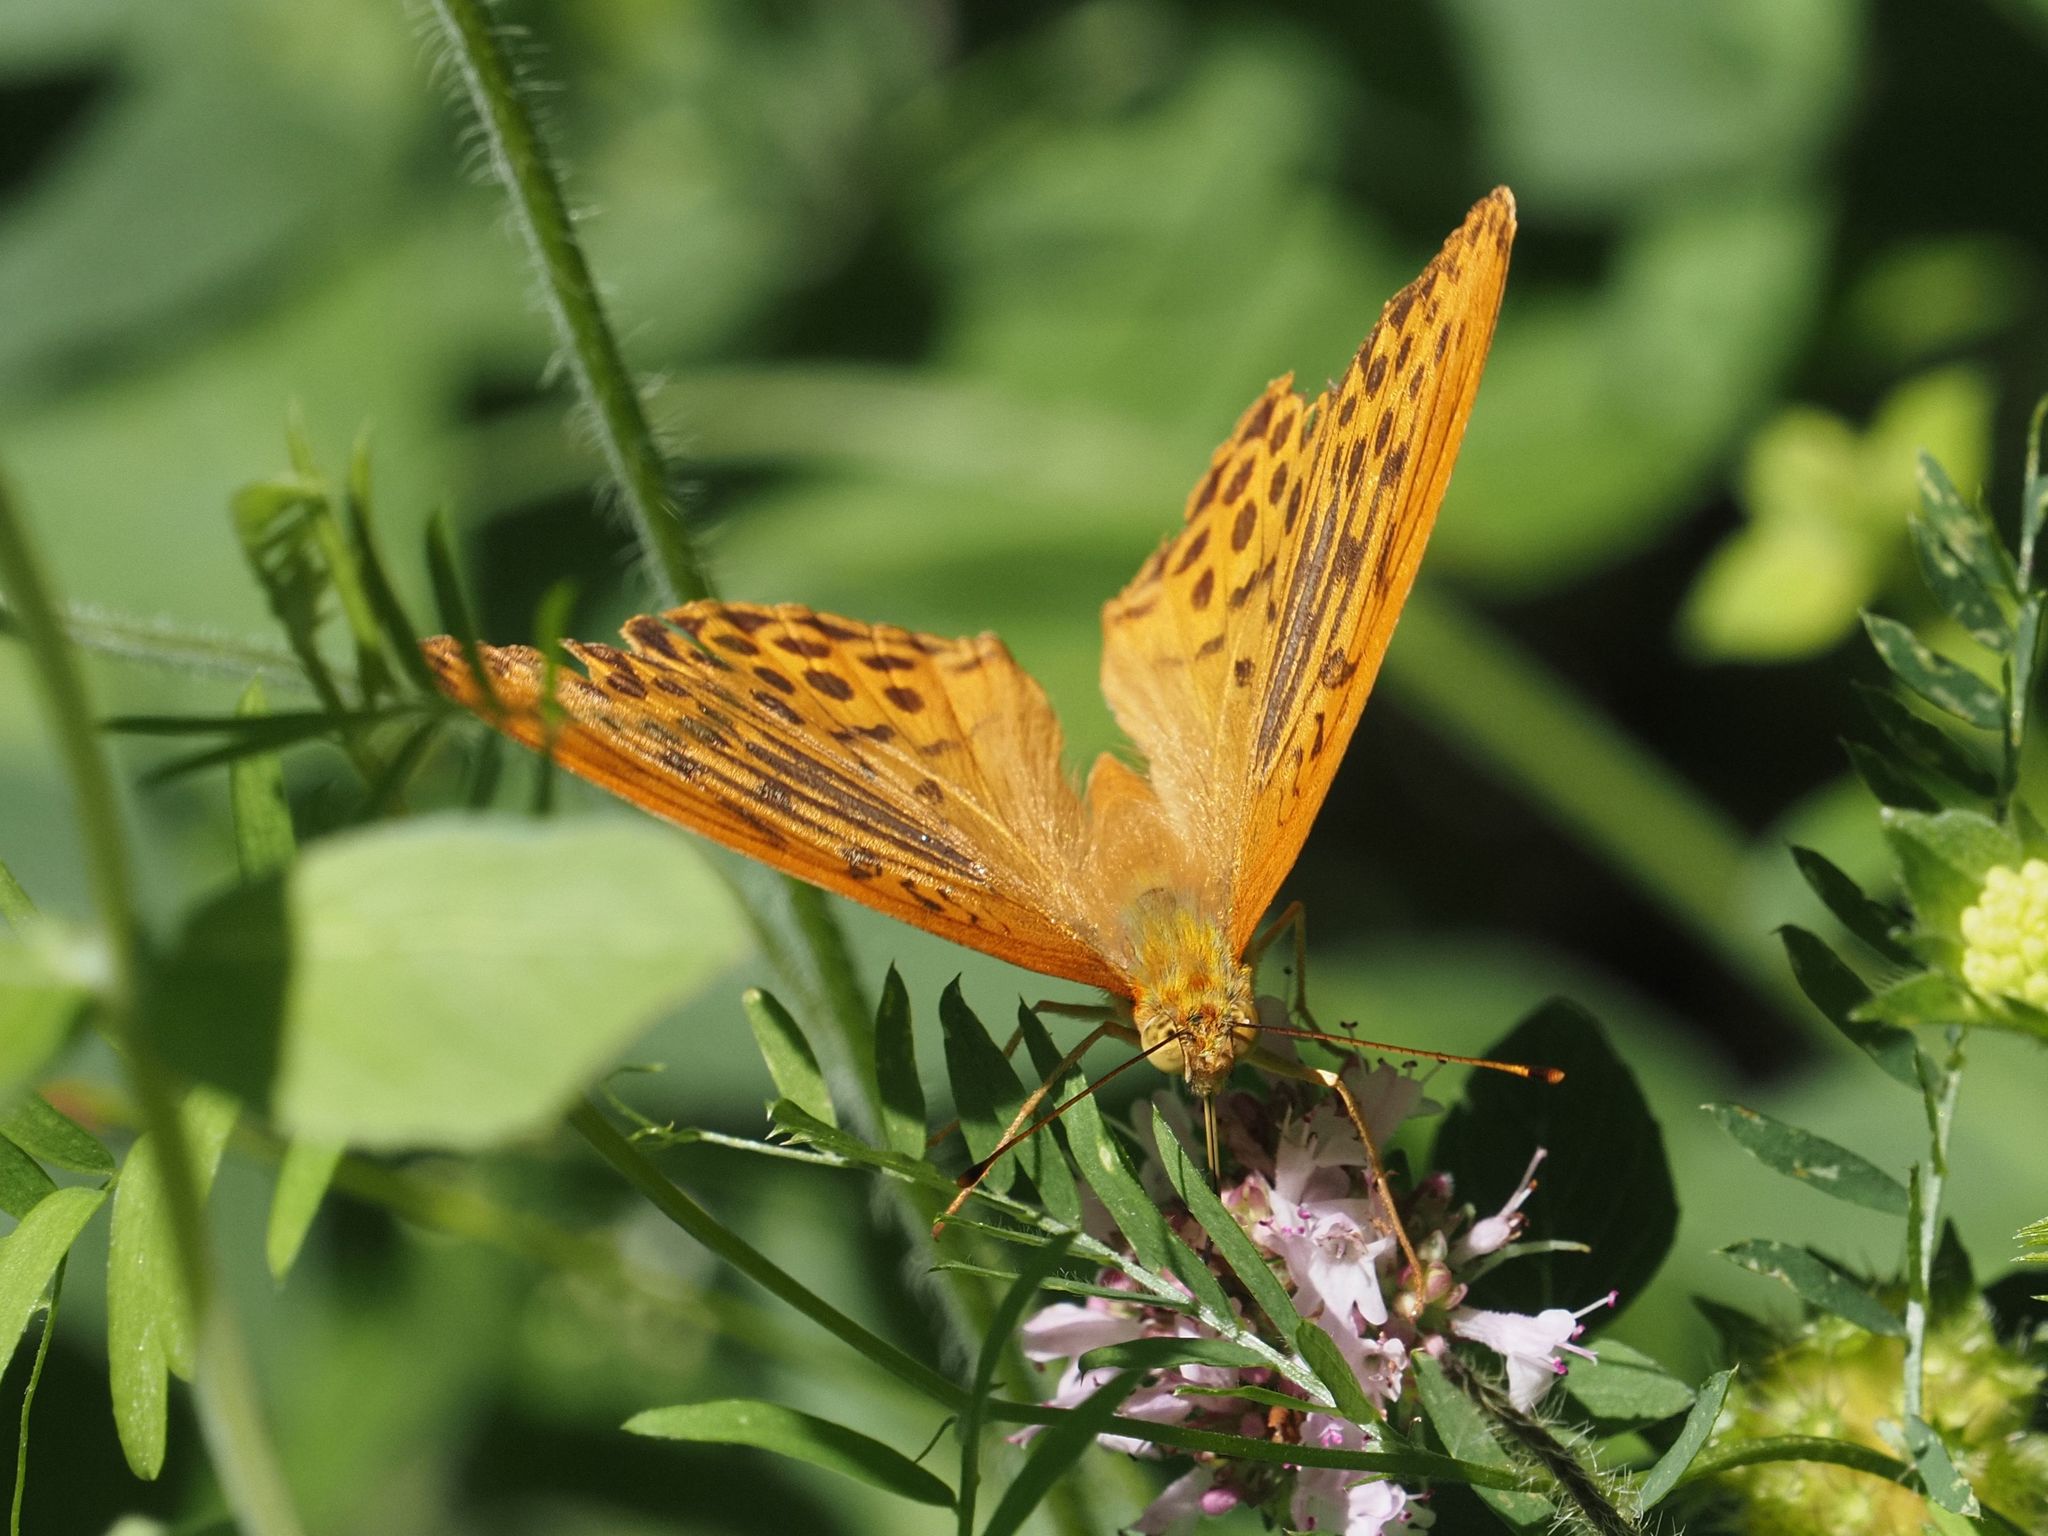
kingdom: Animalia
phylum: Arthropoda
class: Insecta
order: Lepidoptera
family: Nymphalidae
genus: Argynnis
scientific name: Argynnis paphia
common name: Silver-washed fritillary
